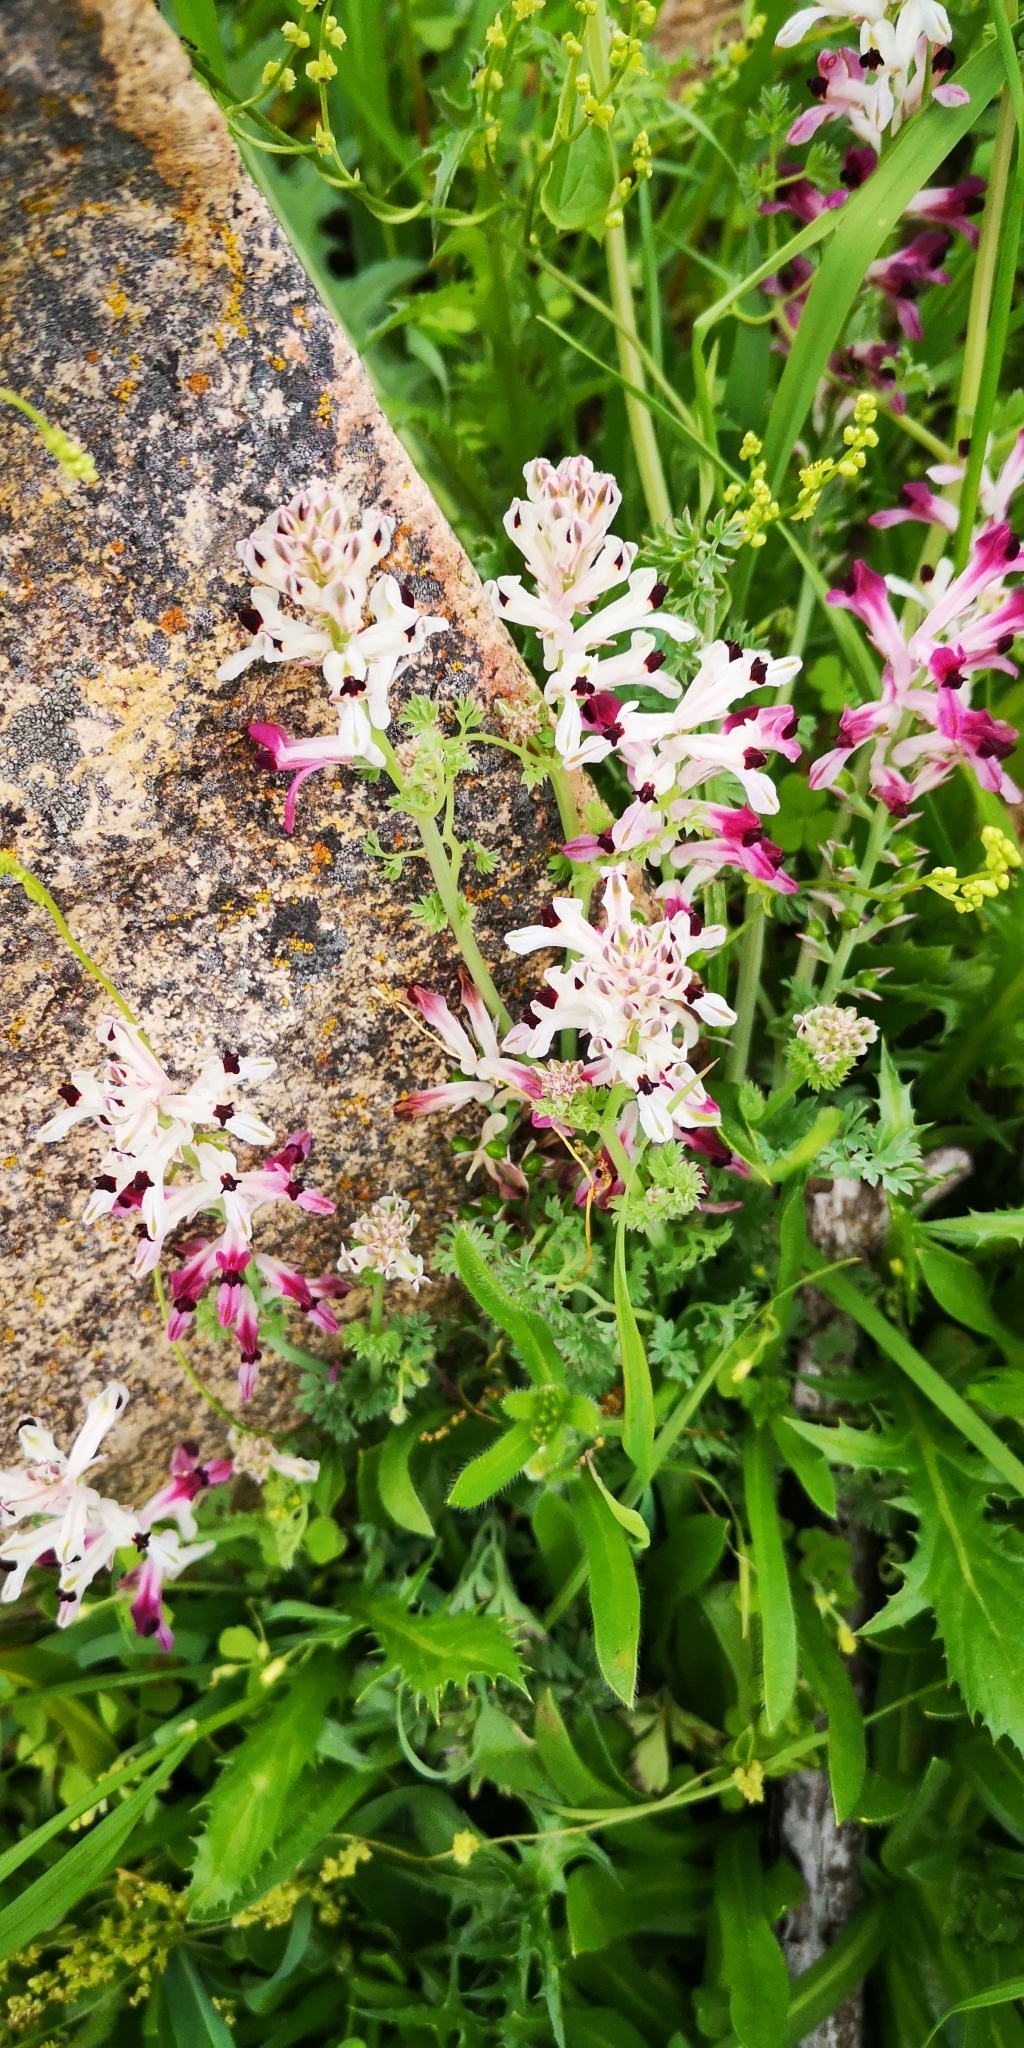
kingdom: Plantae
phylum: Tracheophyta
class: Magnoliopsida
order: Ranunculales
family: Papaveraceae
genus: Fumaria
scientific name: Fumaria agraria
